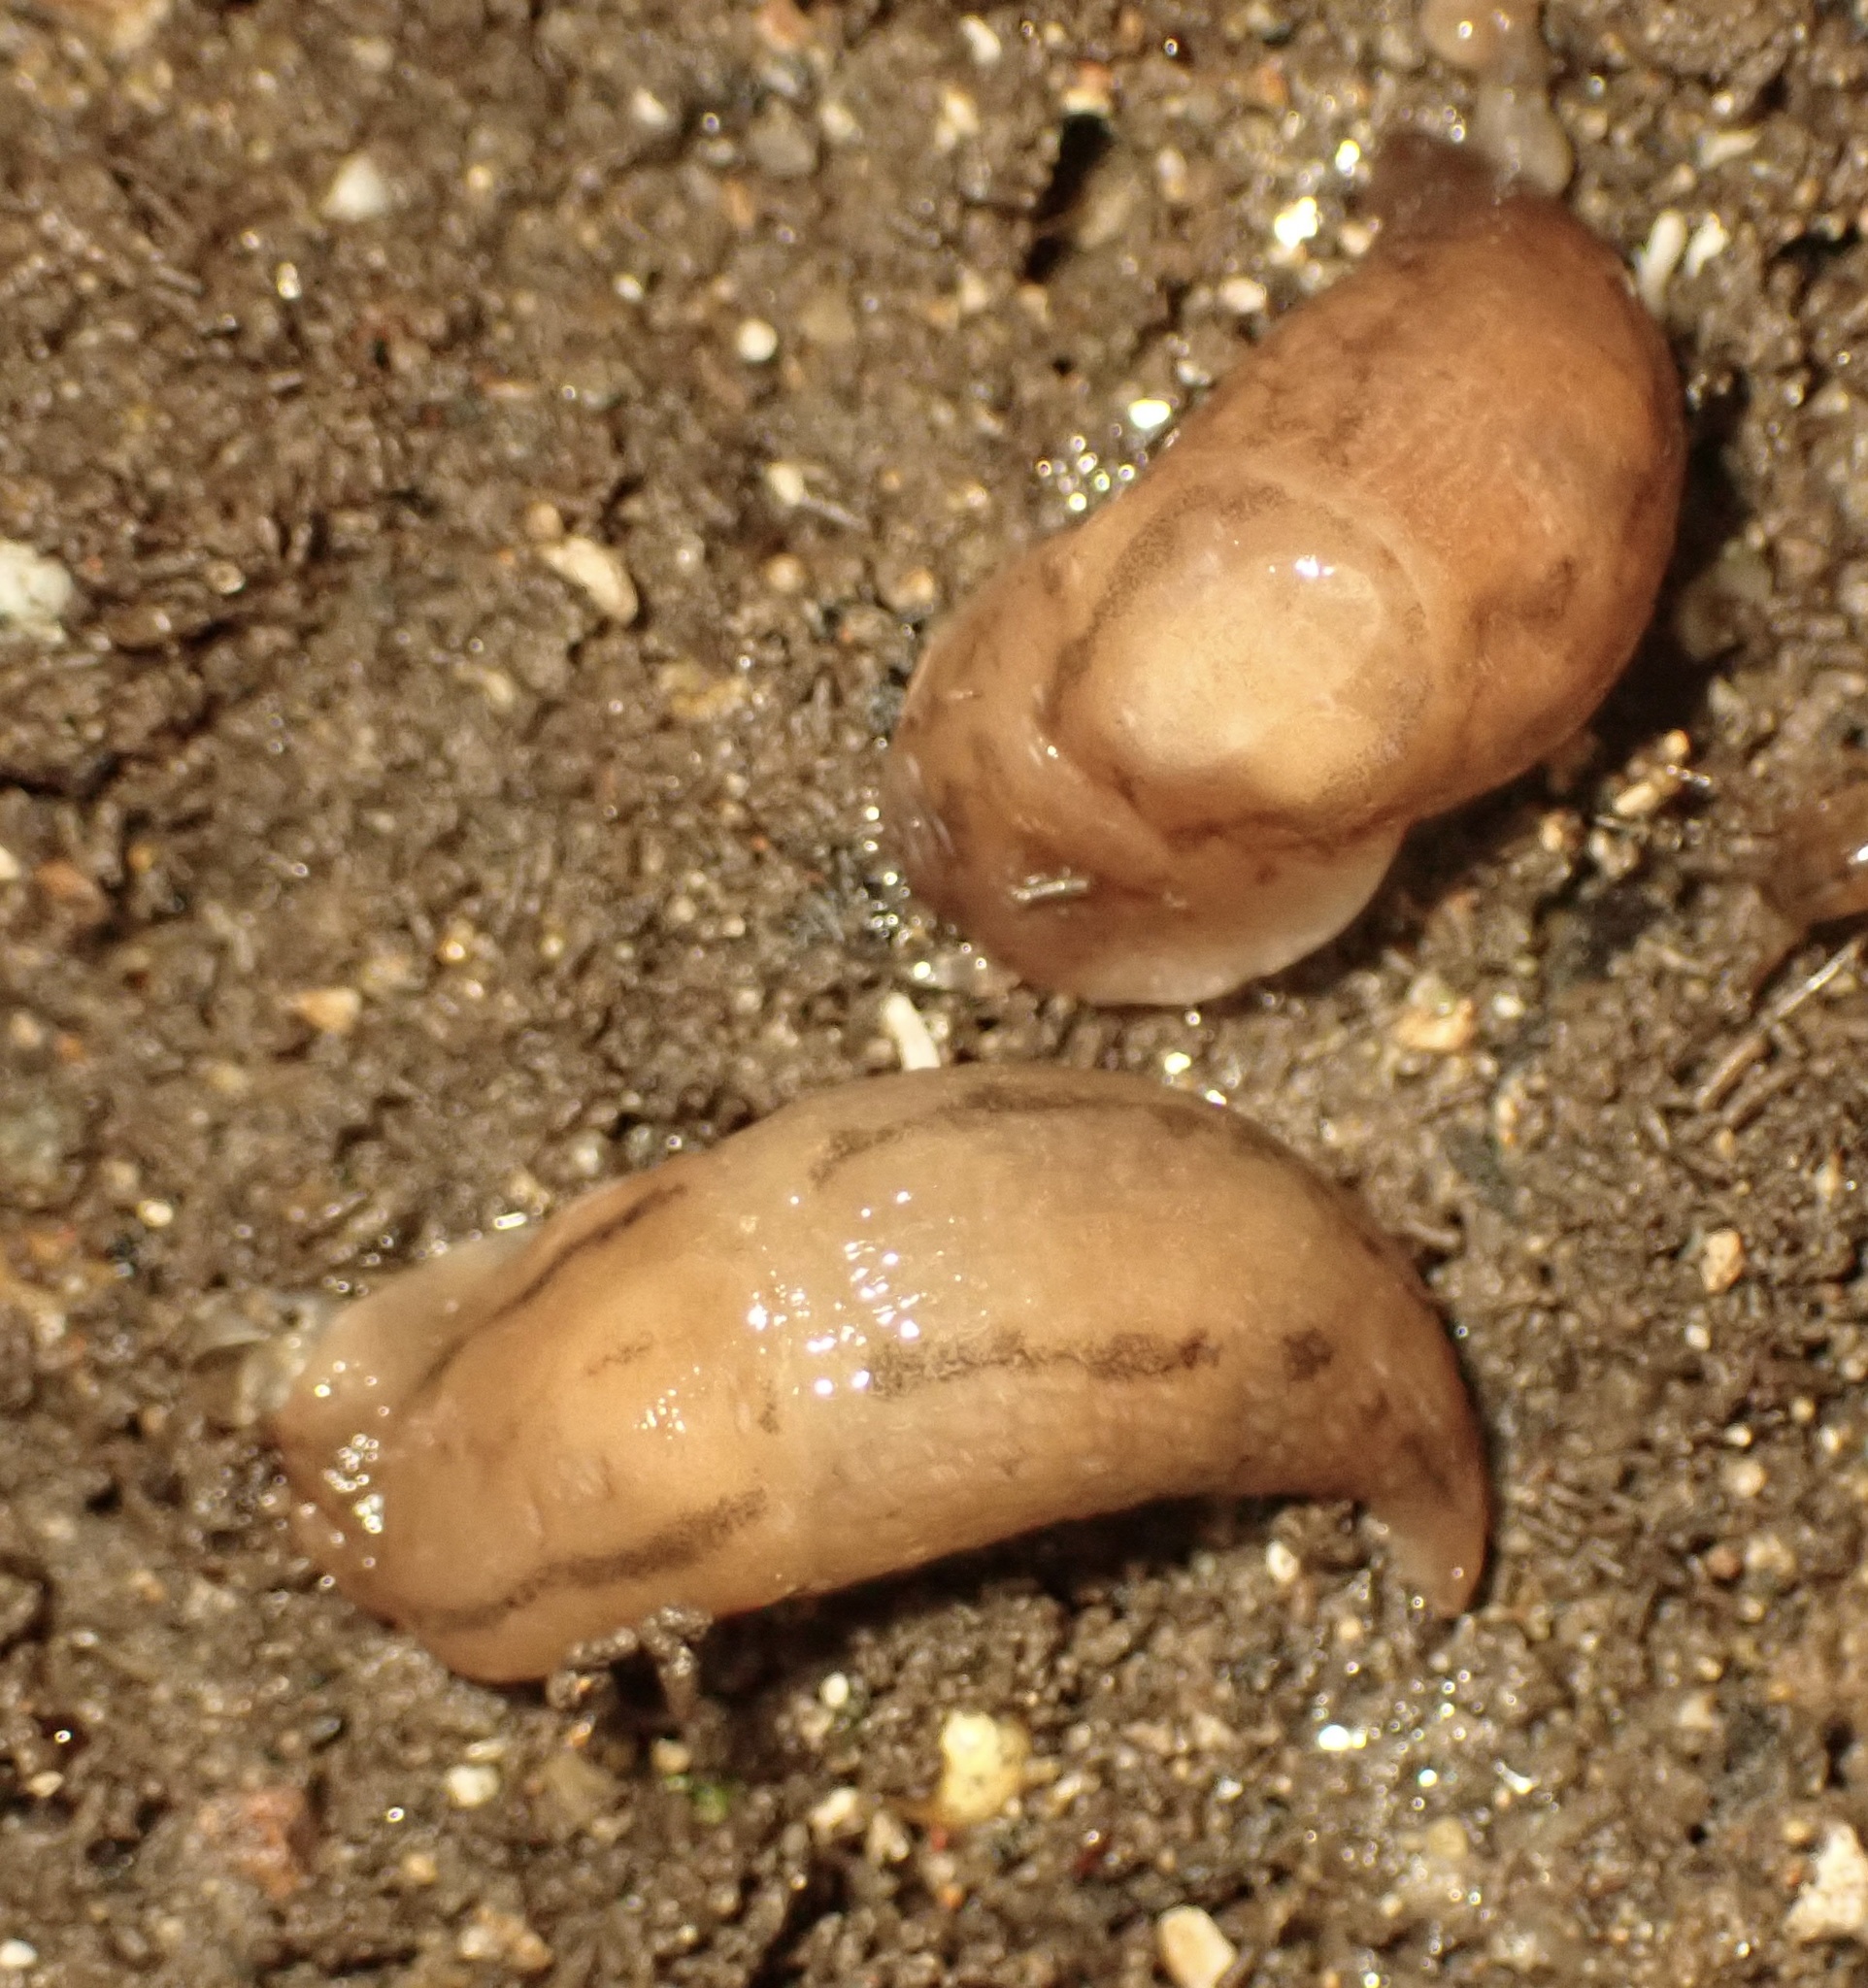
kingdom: Animalia
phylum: Mollusca
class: Gastropoda
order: Stylommatophora
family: Limacidae
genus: Ambigolimax
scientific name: Ambigolimax
